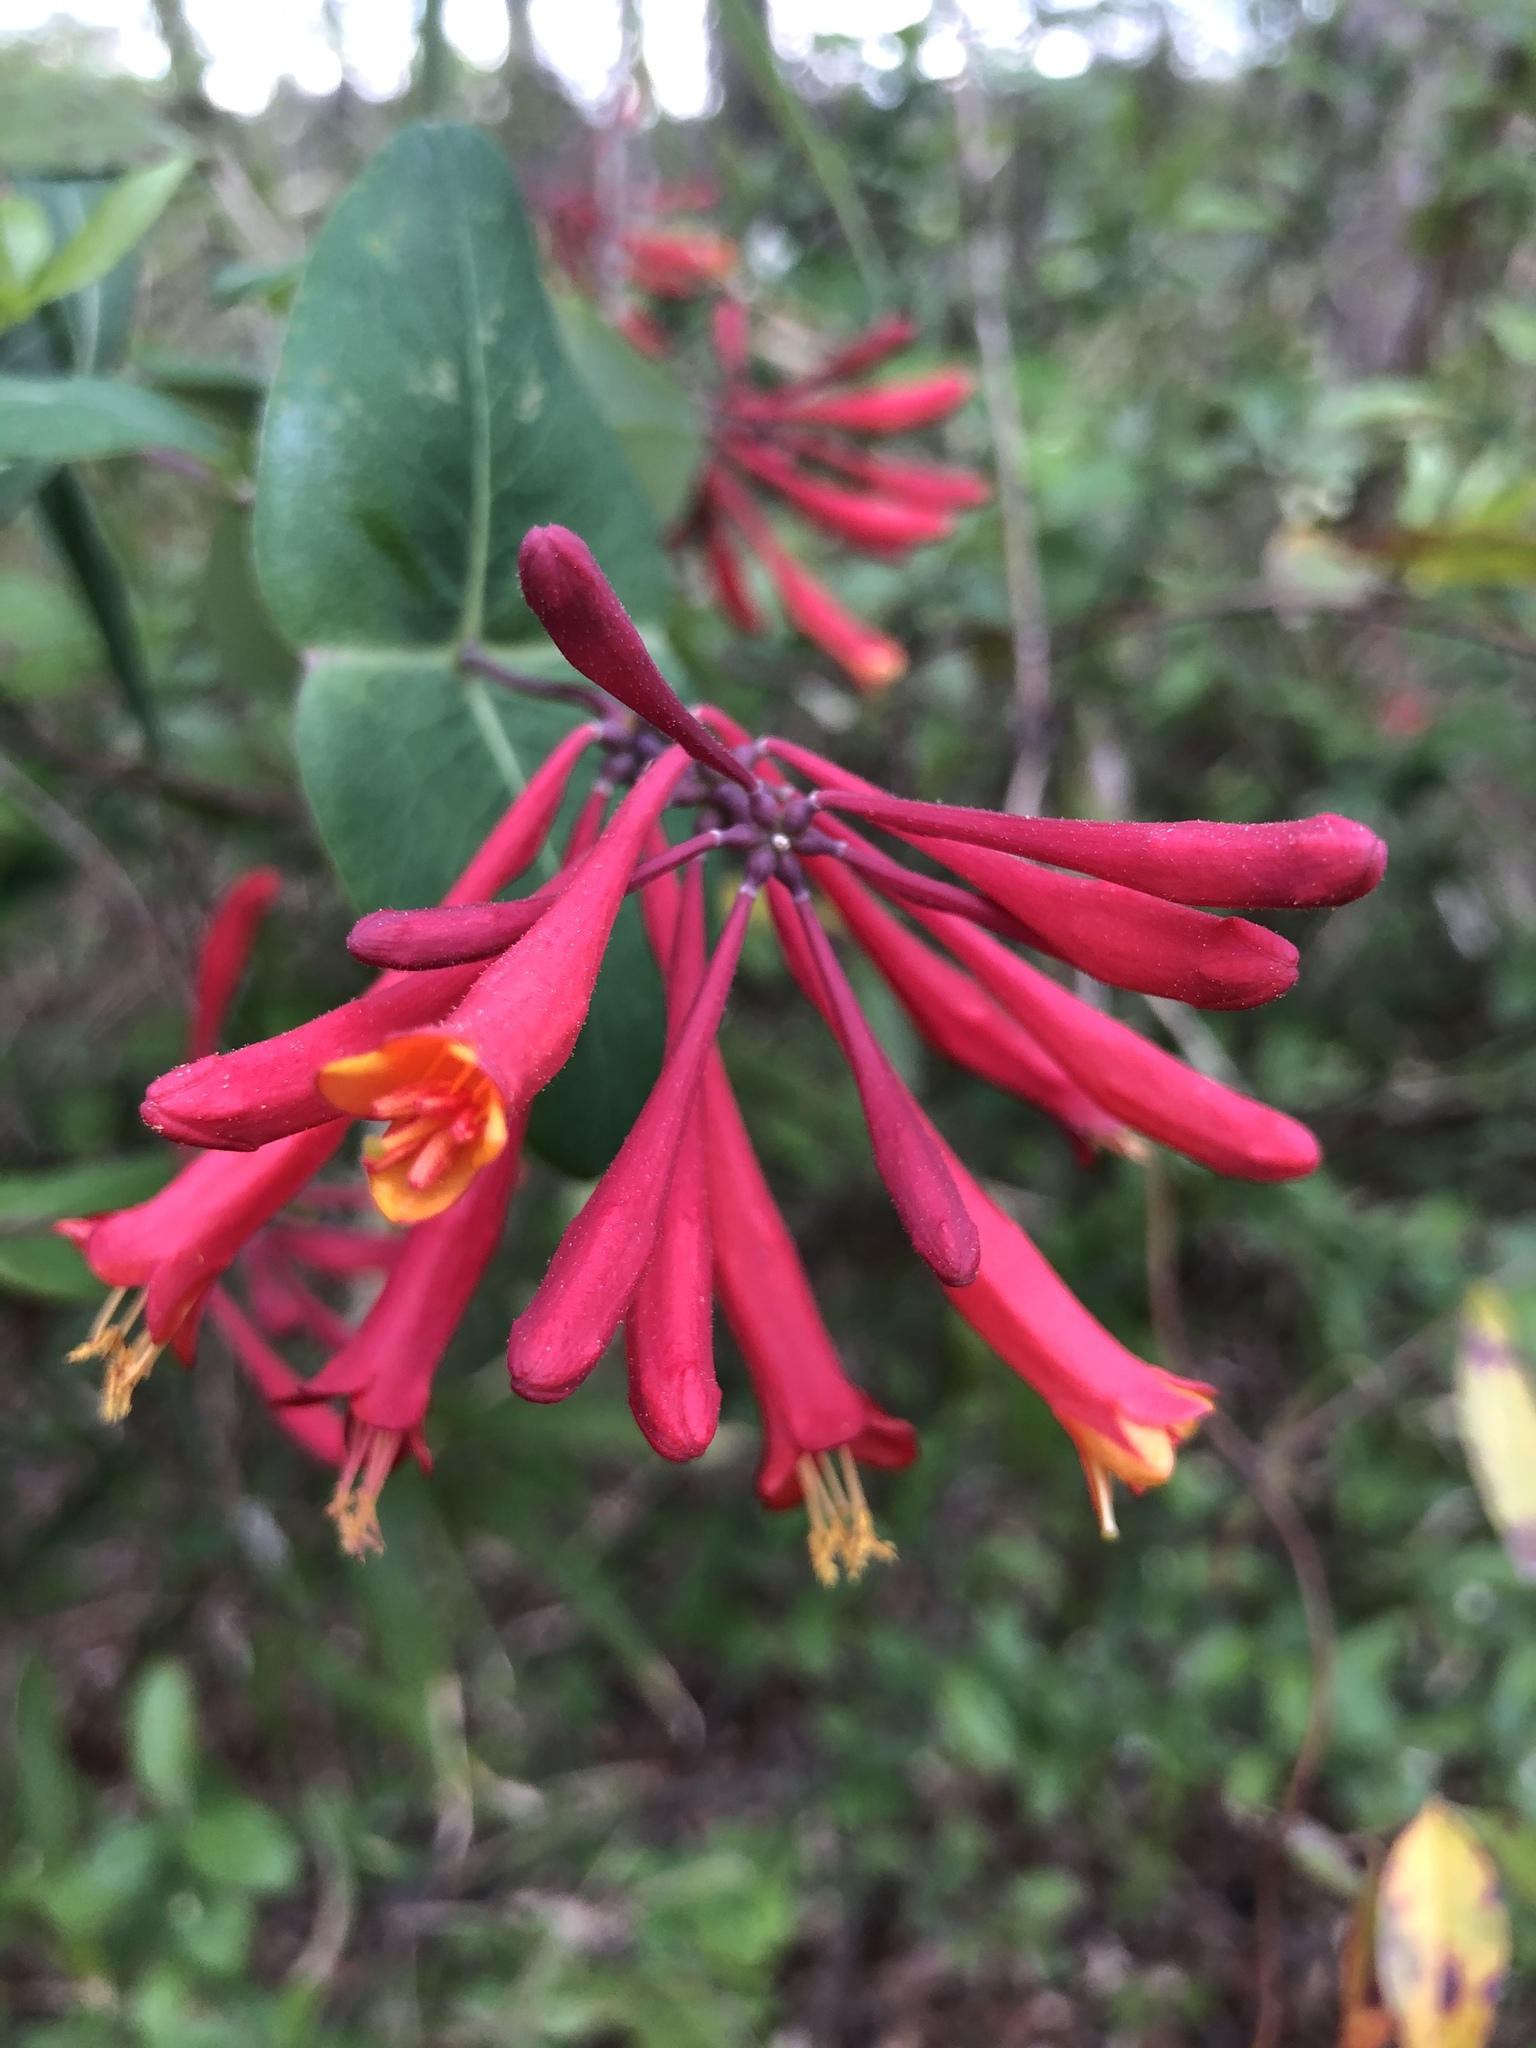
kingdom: Plantae
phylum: Tracheophyta
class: Magnoliopsida
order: Dipsacales
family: Caprifoliaceae
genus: Lonicera
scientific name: Lonicera sempervirens
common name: Coral honeysuckle
